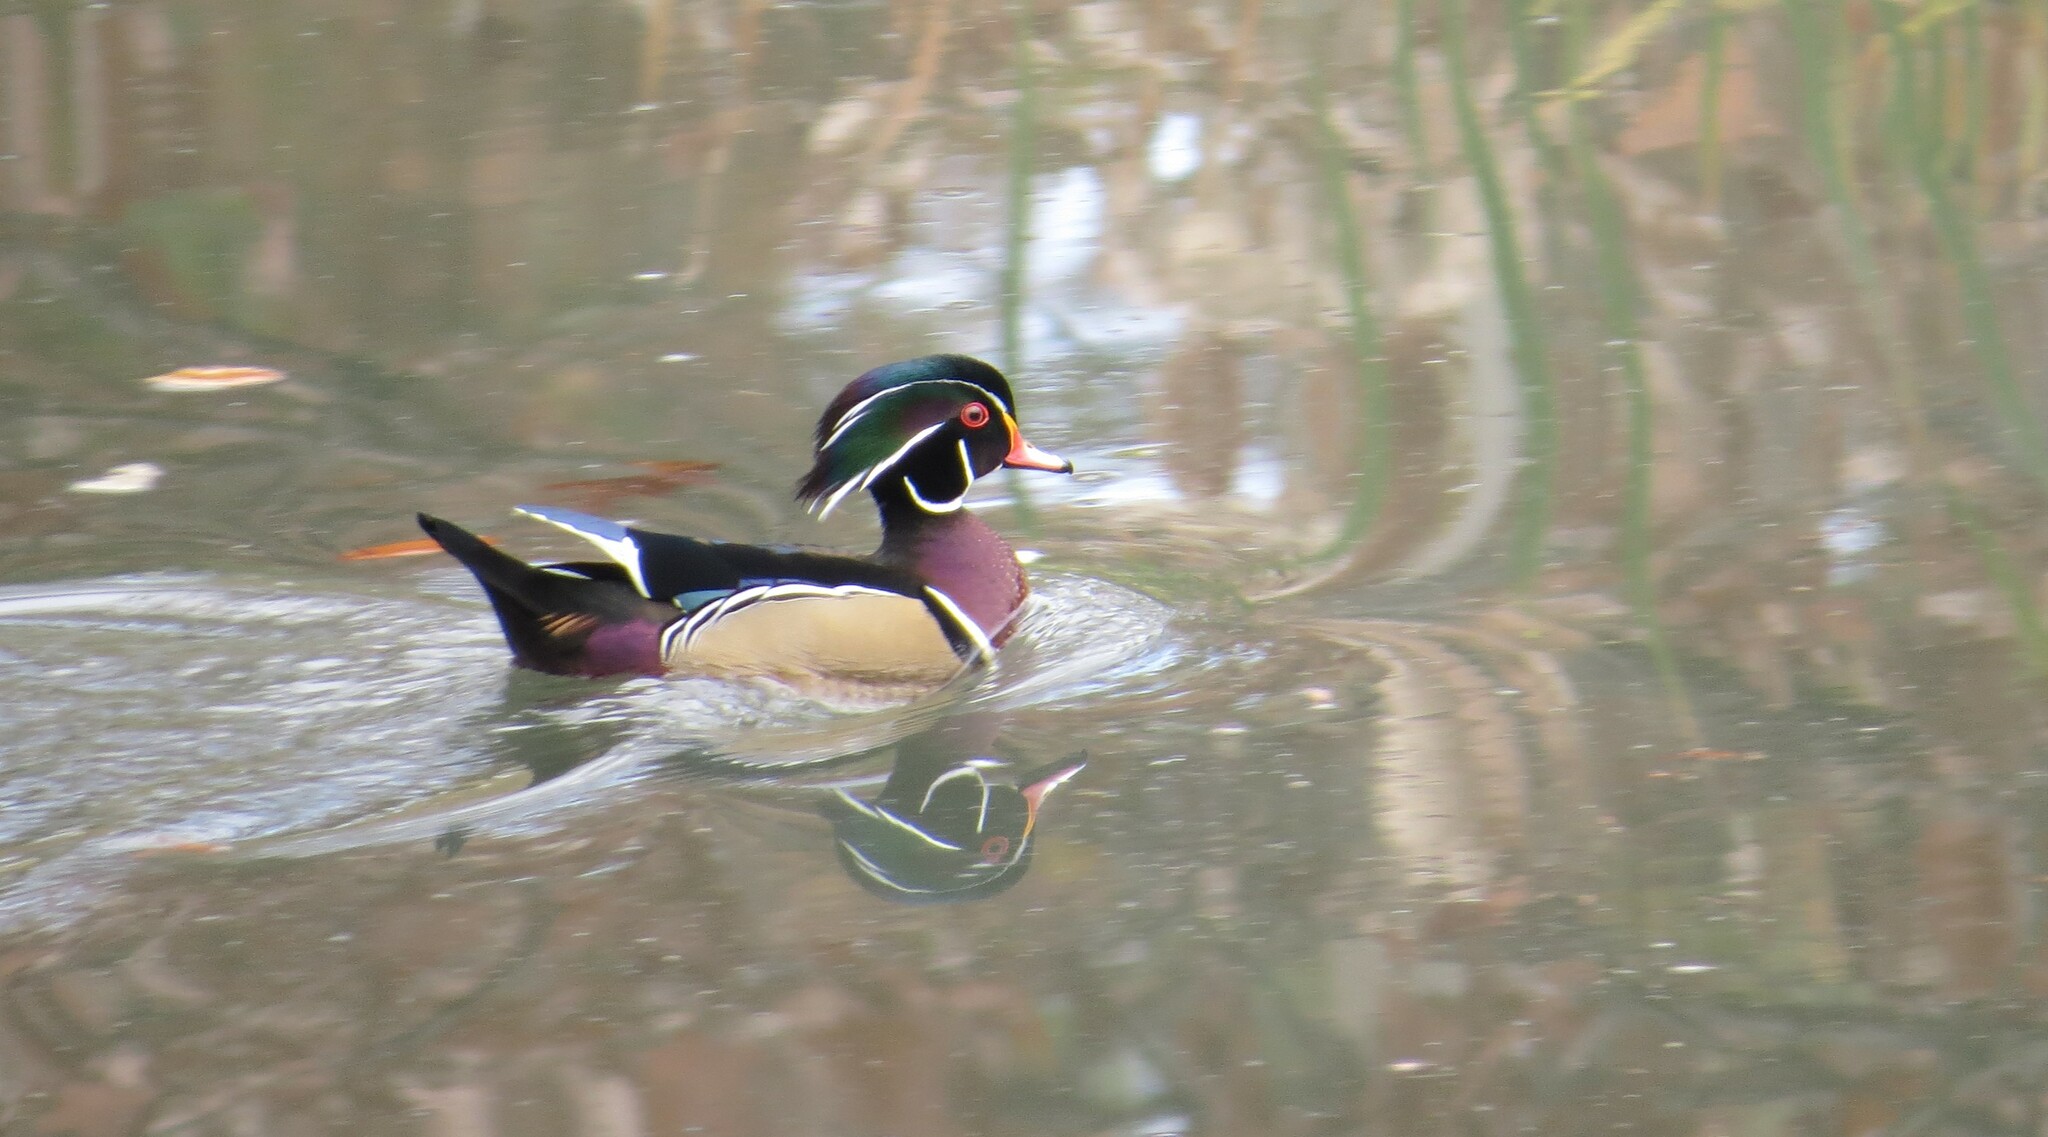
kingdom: Animalia
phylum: Chordata
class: Aves
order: Anseriformes
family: Anatidae
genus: Aix
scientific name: Aix sponsa
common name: Wood duck
